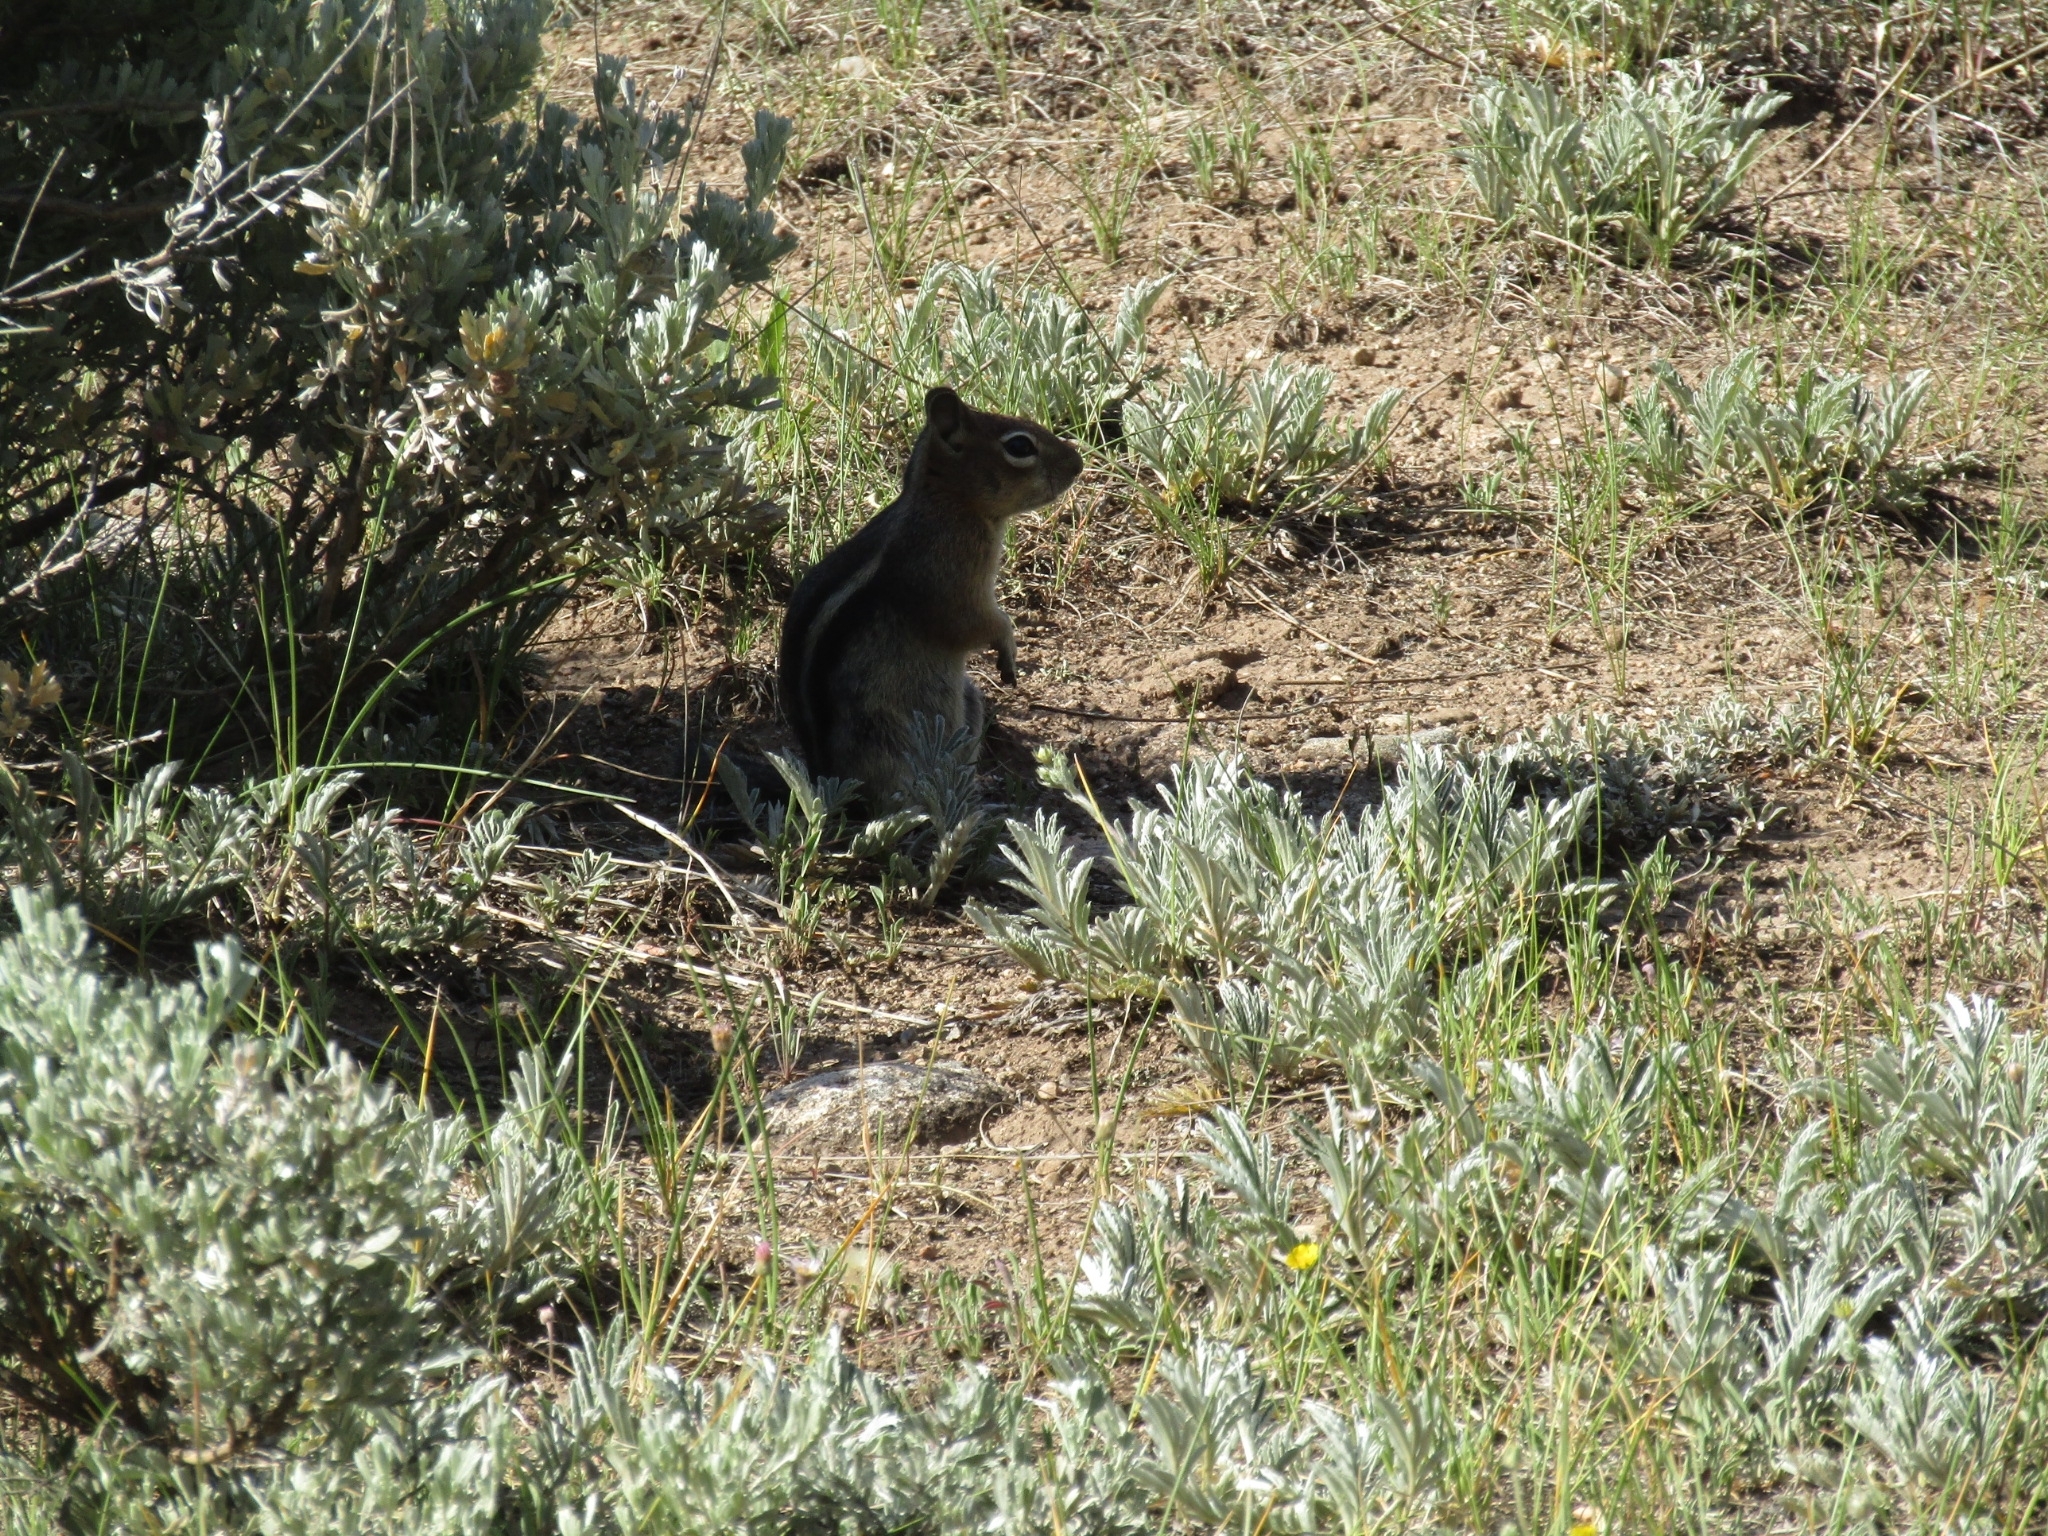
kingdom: Animalia
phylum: Chordata
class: Mammalia
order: Rodentia
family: Sciuridae
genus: Callospermophilus
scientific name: Callospermophilus lateralis
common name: Golden-mantled ground squirrel
